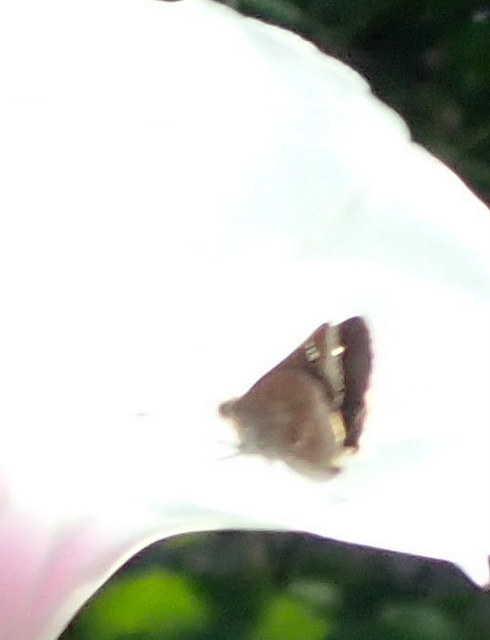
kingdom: Animalia
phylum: Arthropoda
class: Insecta
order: Lepidoptera
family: Hesperiidae
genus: Lerema
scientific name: Lerema accius
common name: Clouded skipper
